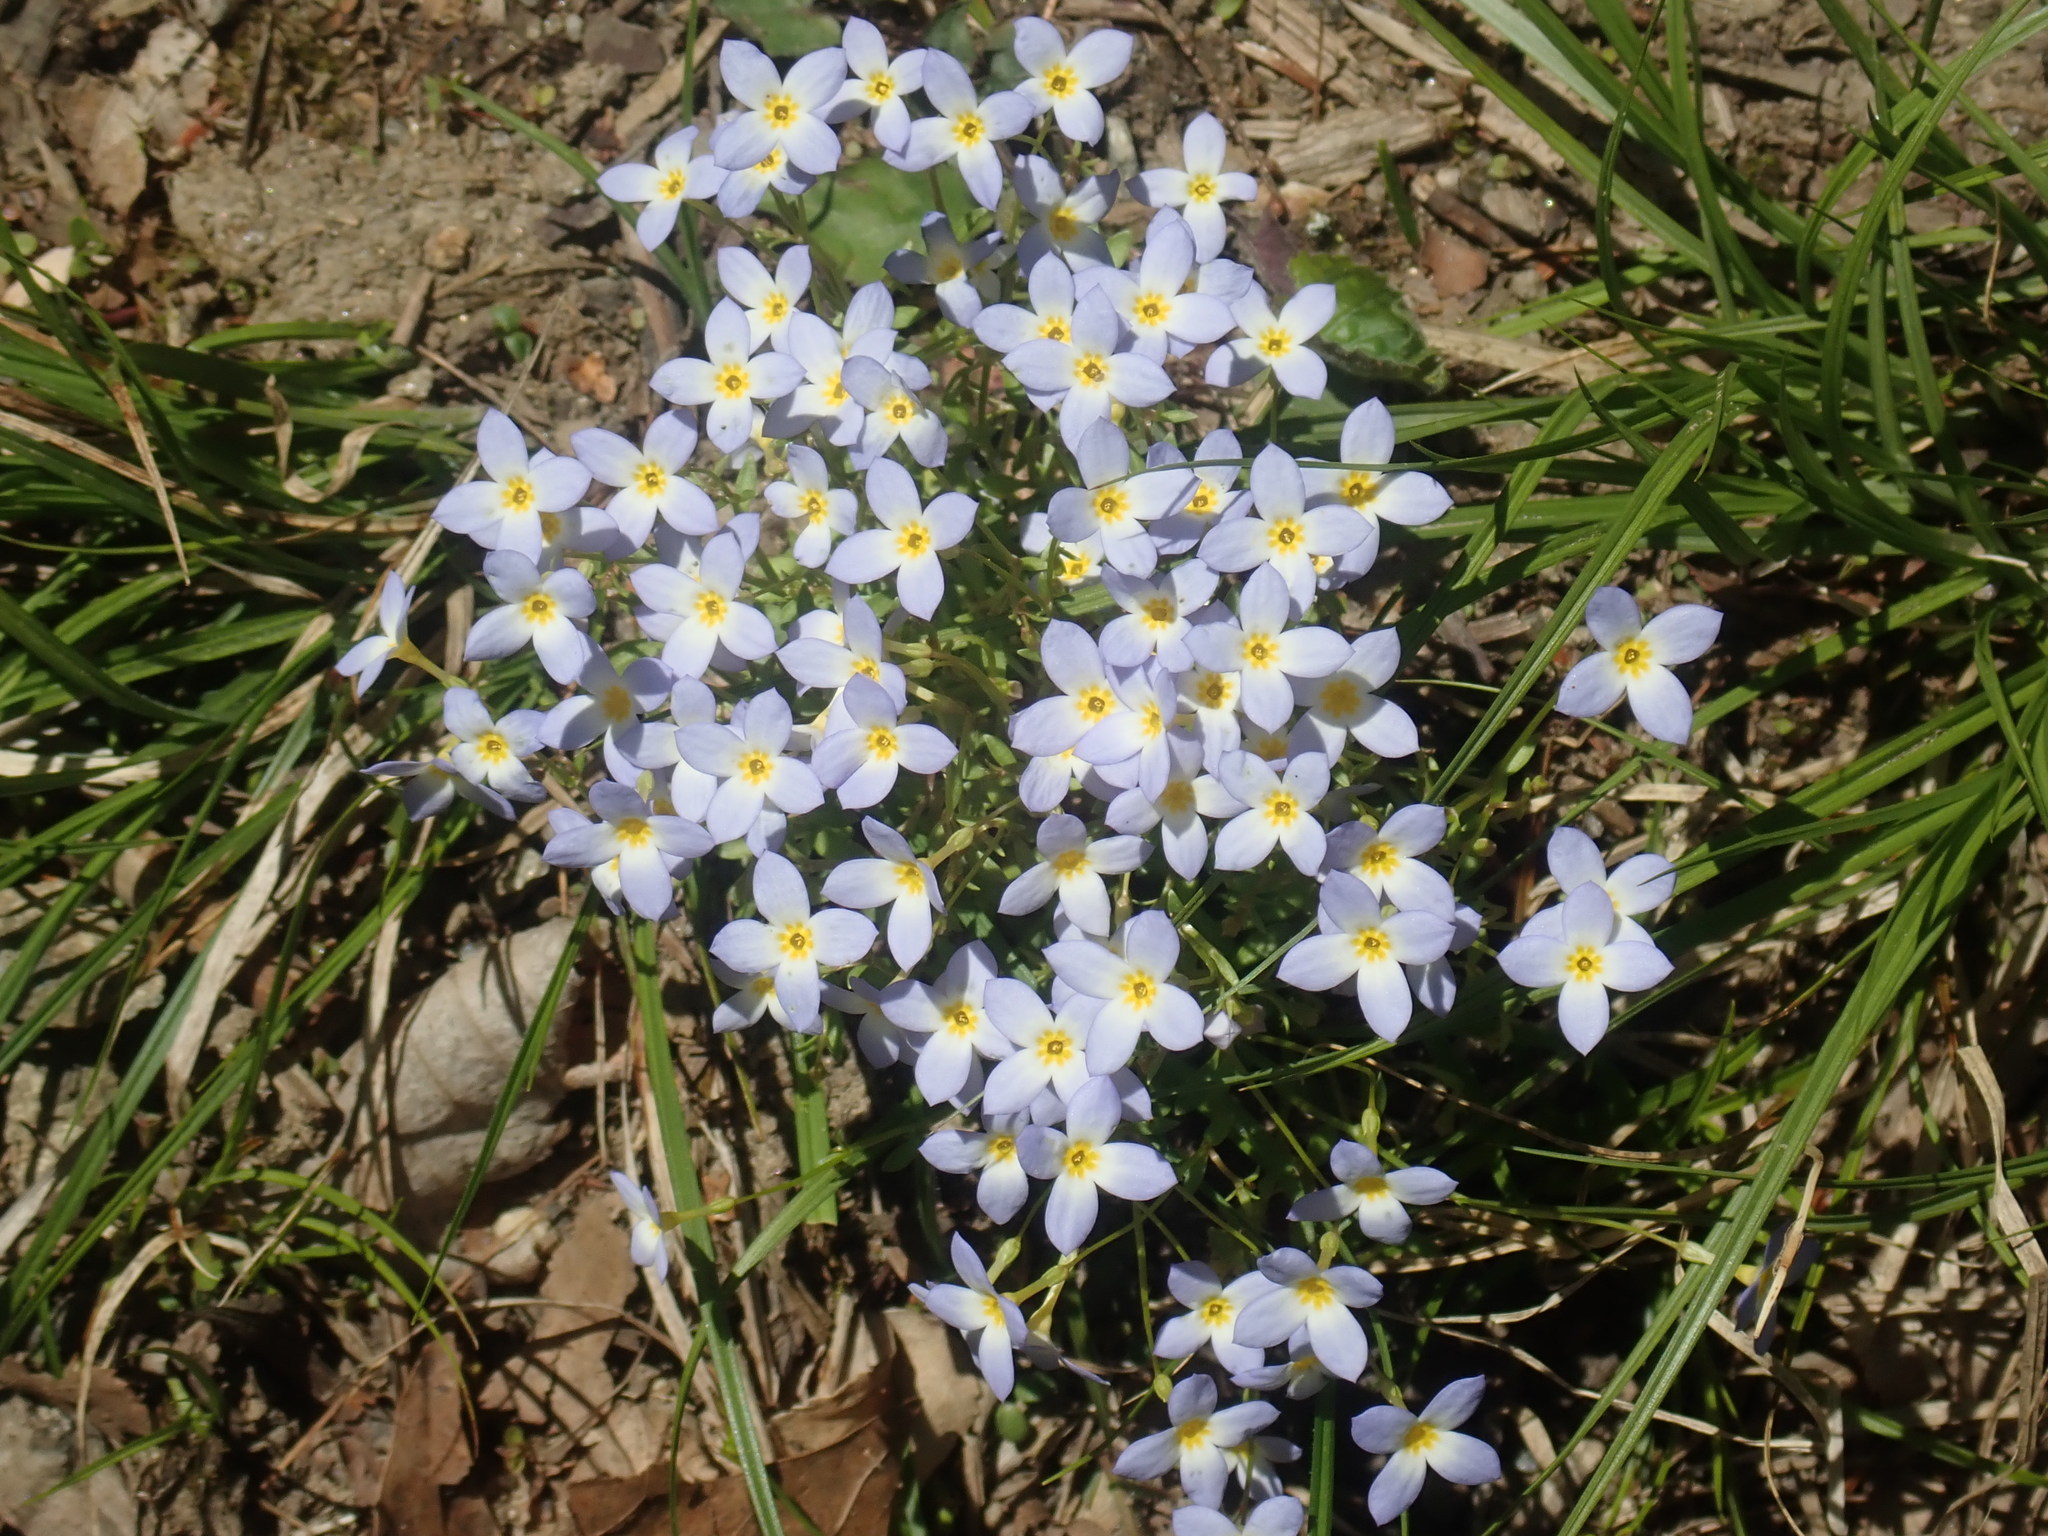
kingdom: Plantae
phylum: Tracheophyta
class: Magnoliopsida
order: Gentianales
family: Rubiaceae
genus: Houstonia
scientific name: Houstonia caerulea
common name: Bluets
